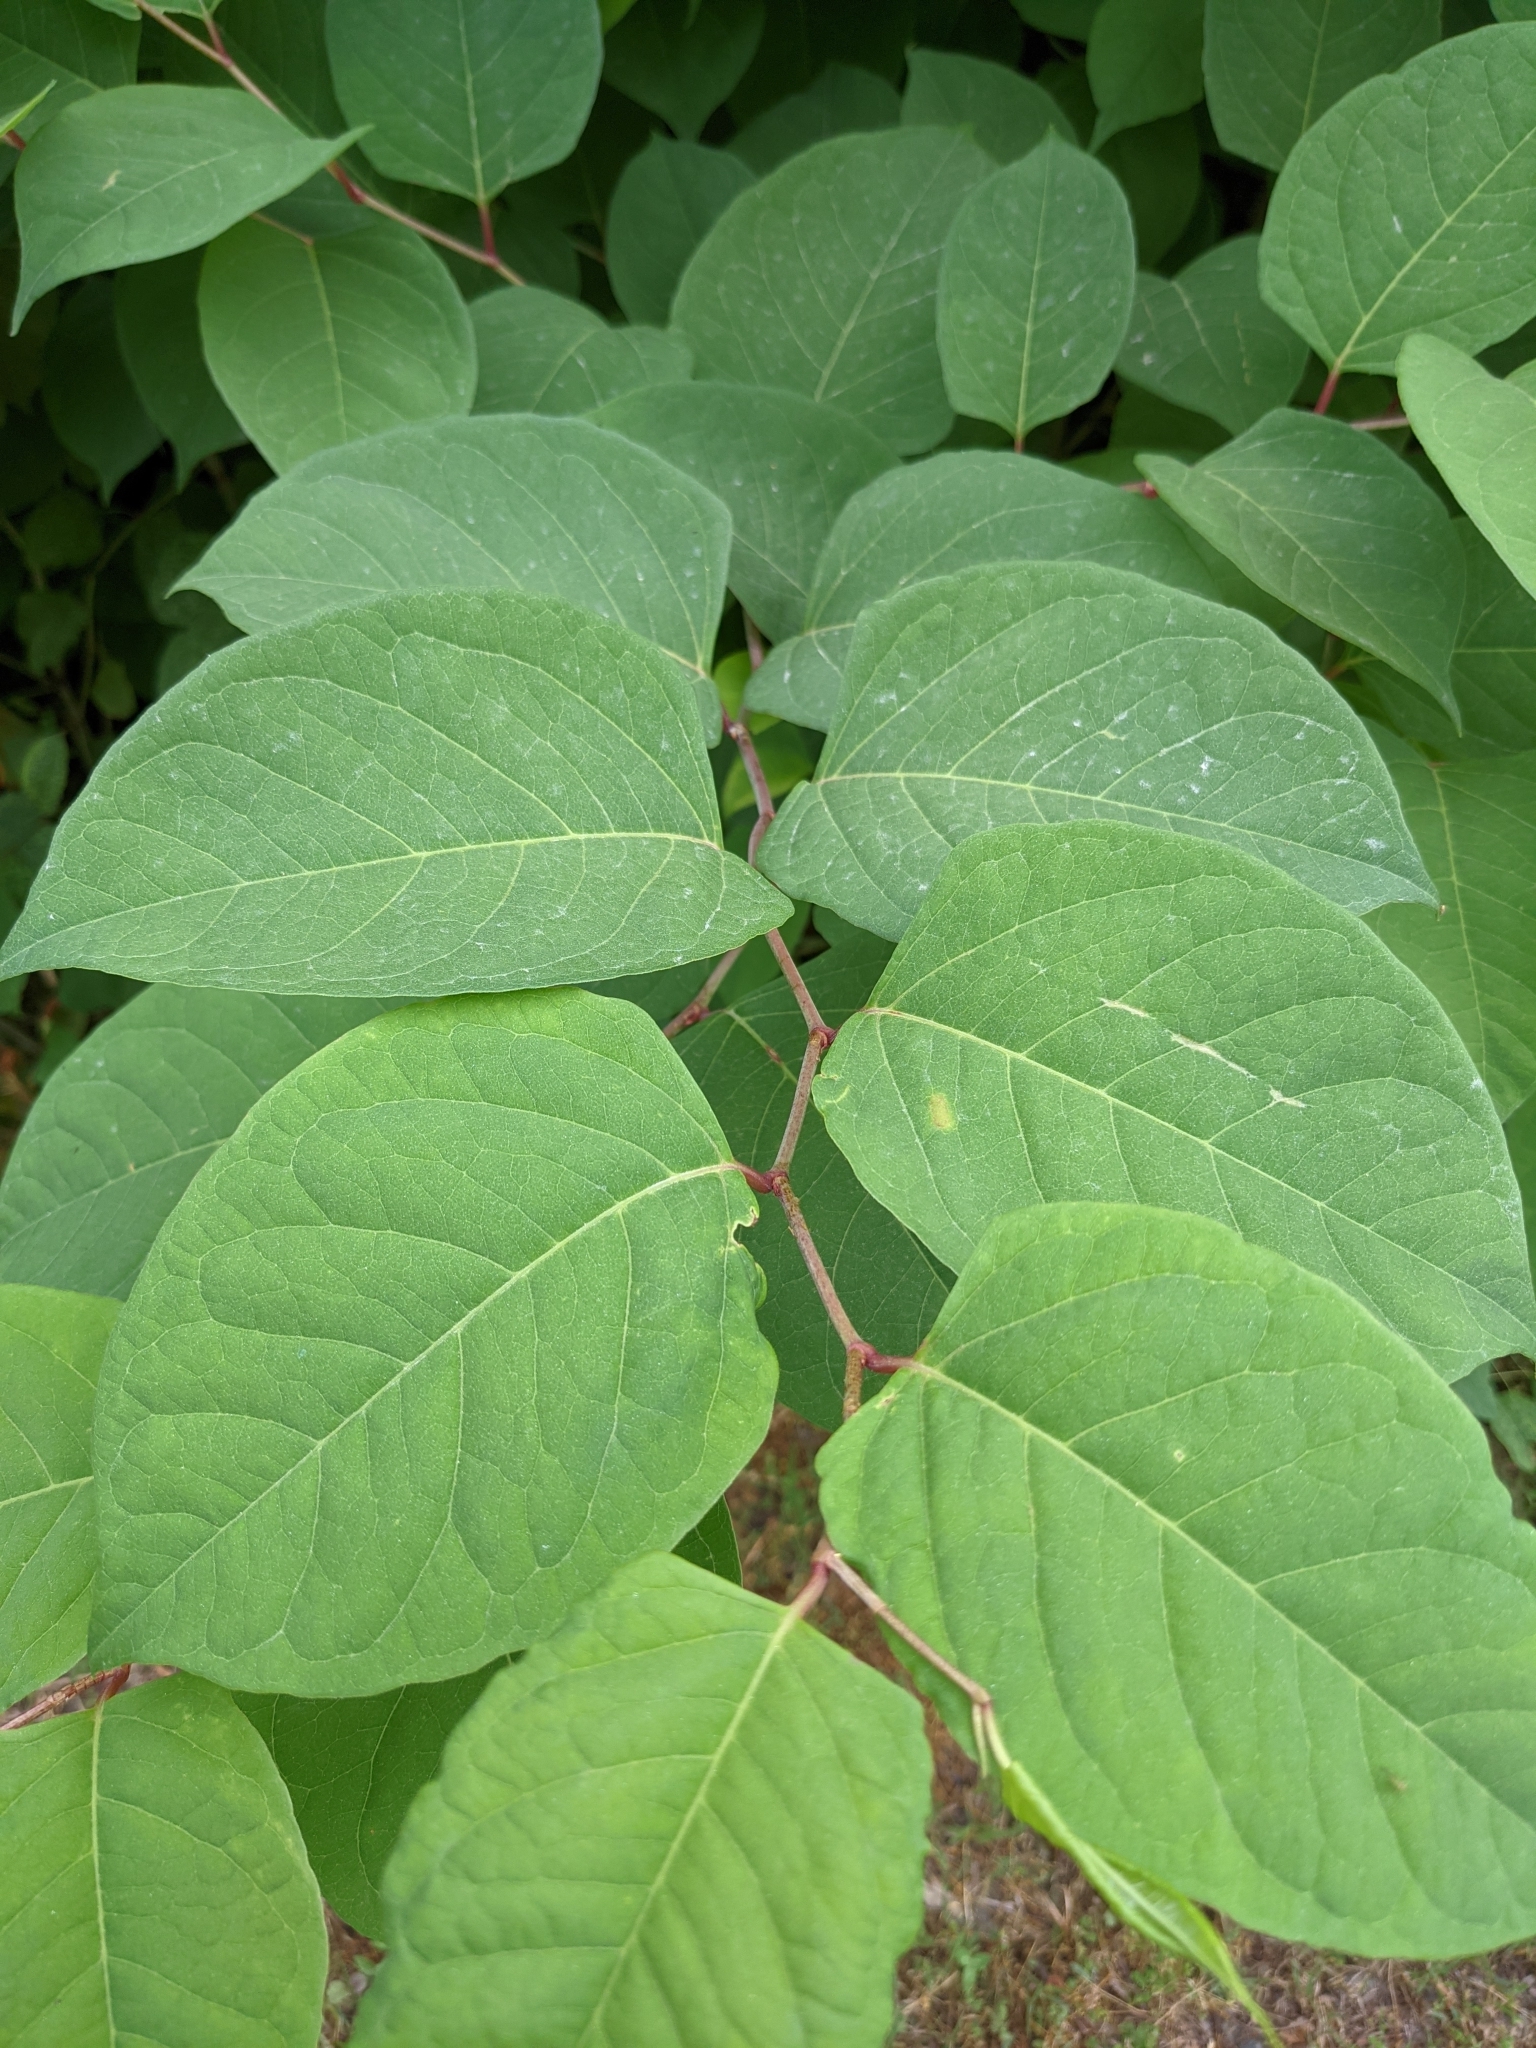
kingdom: Plantae
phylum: Tracheophyta
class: Magnoliopsida
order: Caryophyllales
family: Polygonaceae
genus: Reynoutria
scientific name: Reynoutria japonica
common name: Japanese knotweed
